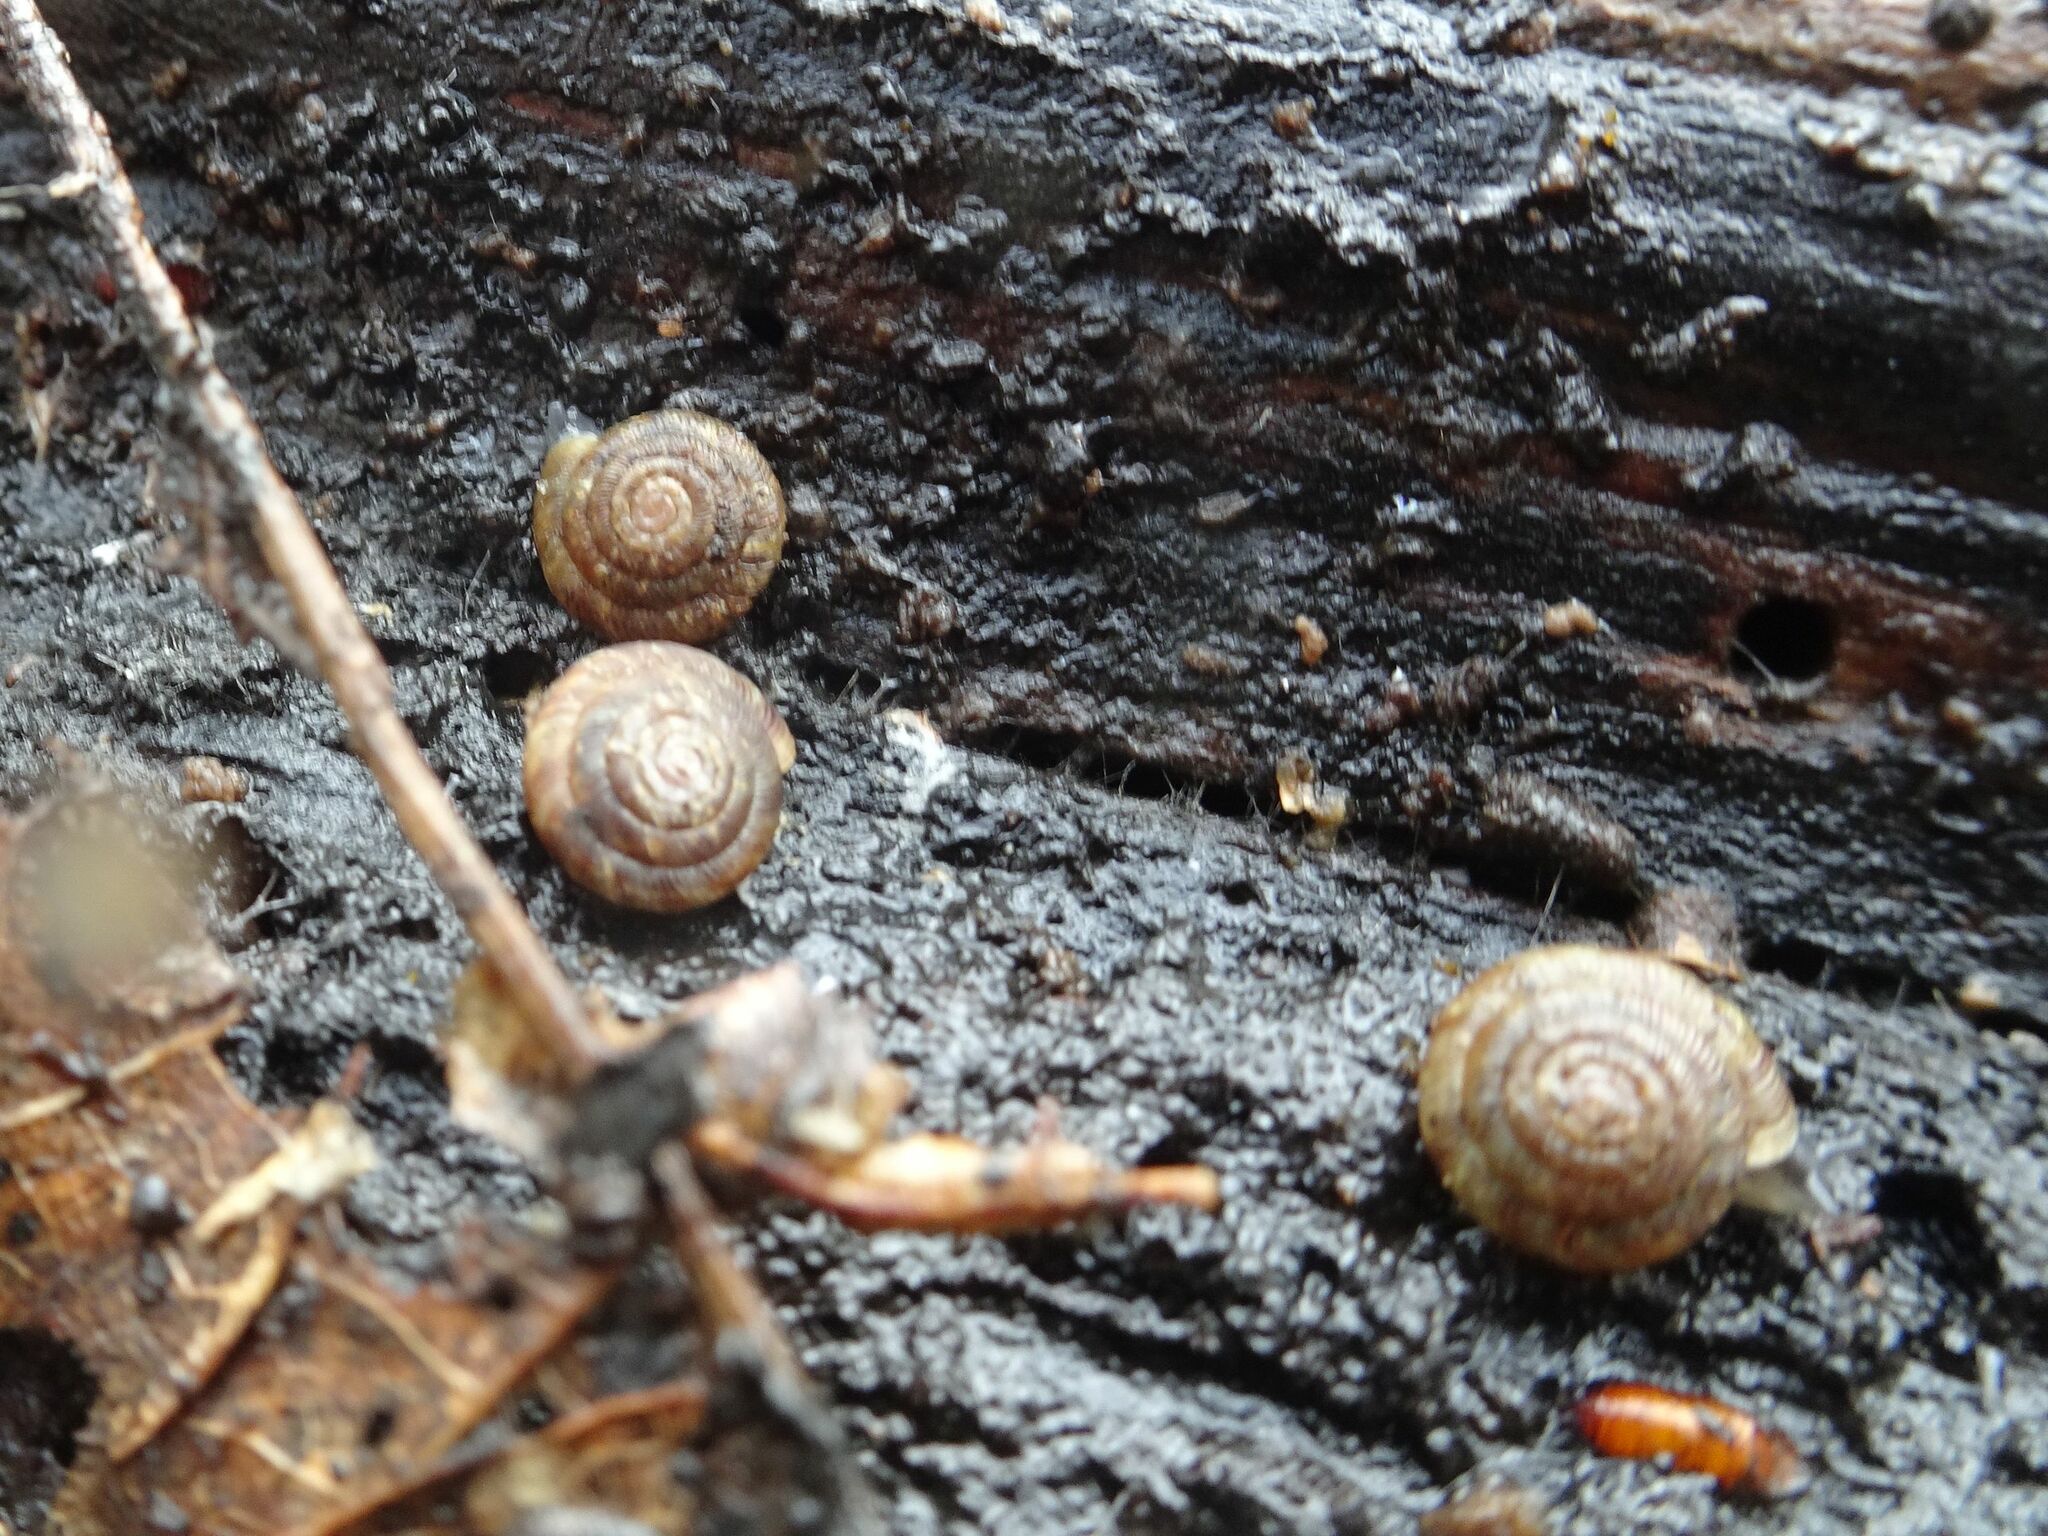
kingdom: Animalia
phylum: Mollusca
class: Gastropoda
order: Stylommatophora
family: Discidae
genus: Discus
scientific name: Discus rotundatus
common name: Rounded snail
